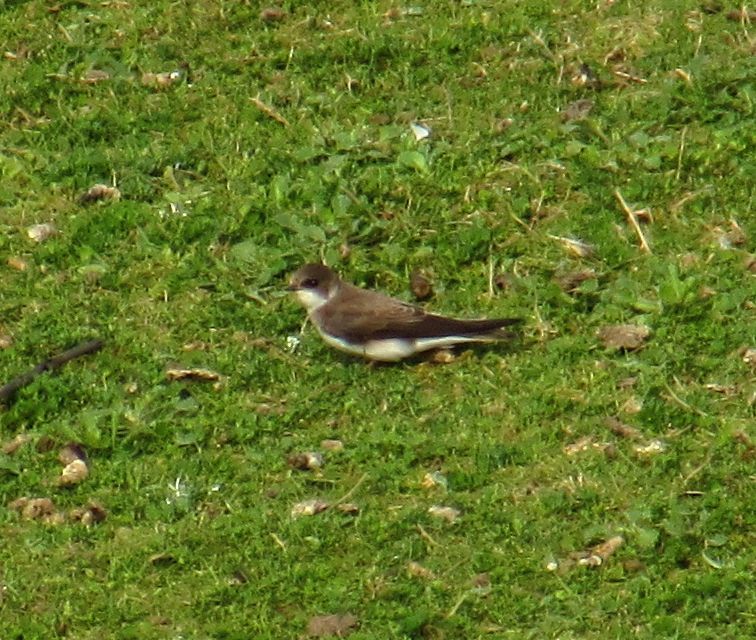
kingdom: Animalia
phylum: Chordata
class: Aves
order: Passeriformes
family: Hirundinidae
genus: Riparia
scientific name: Riparia riparia
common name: Sand martin
